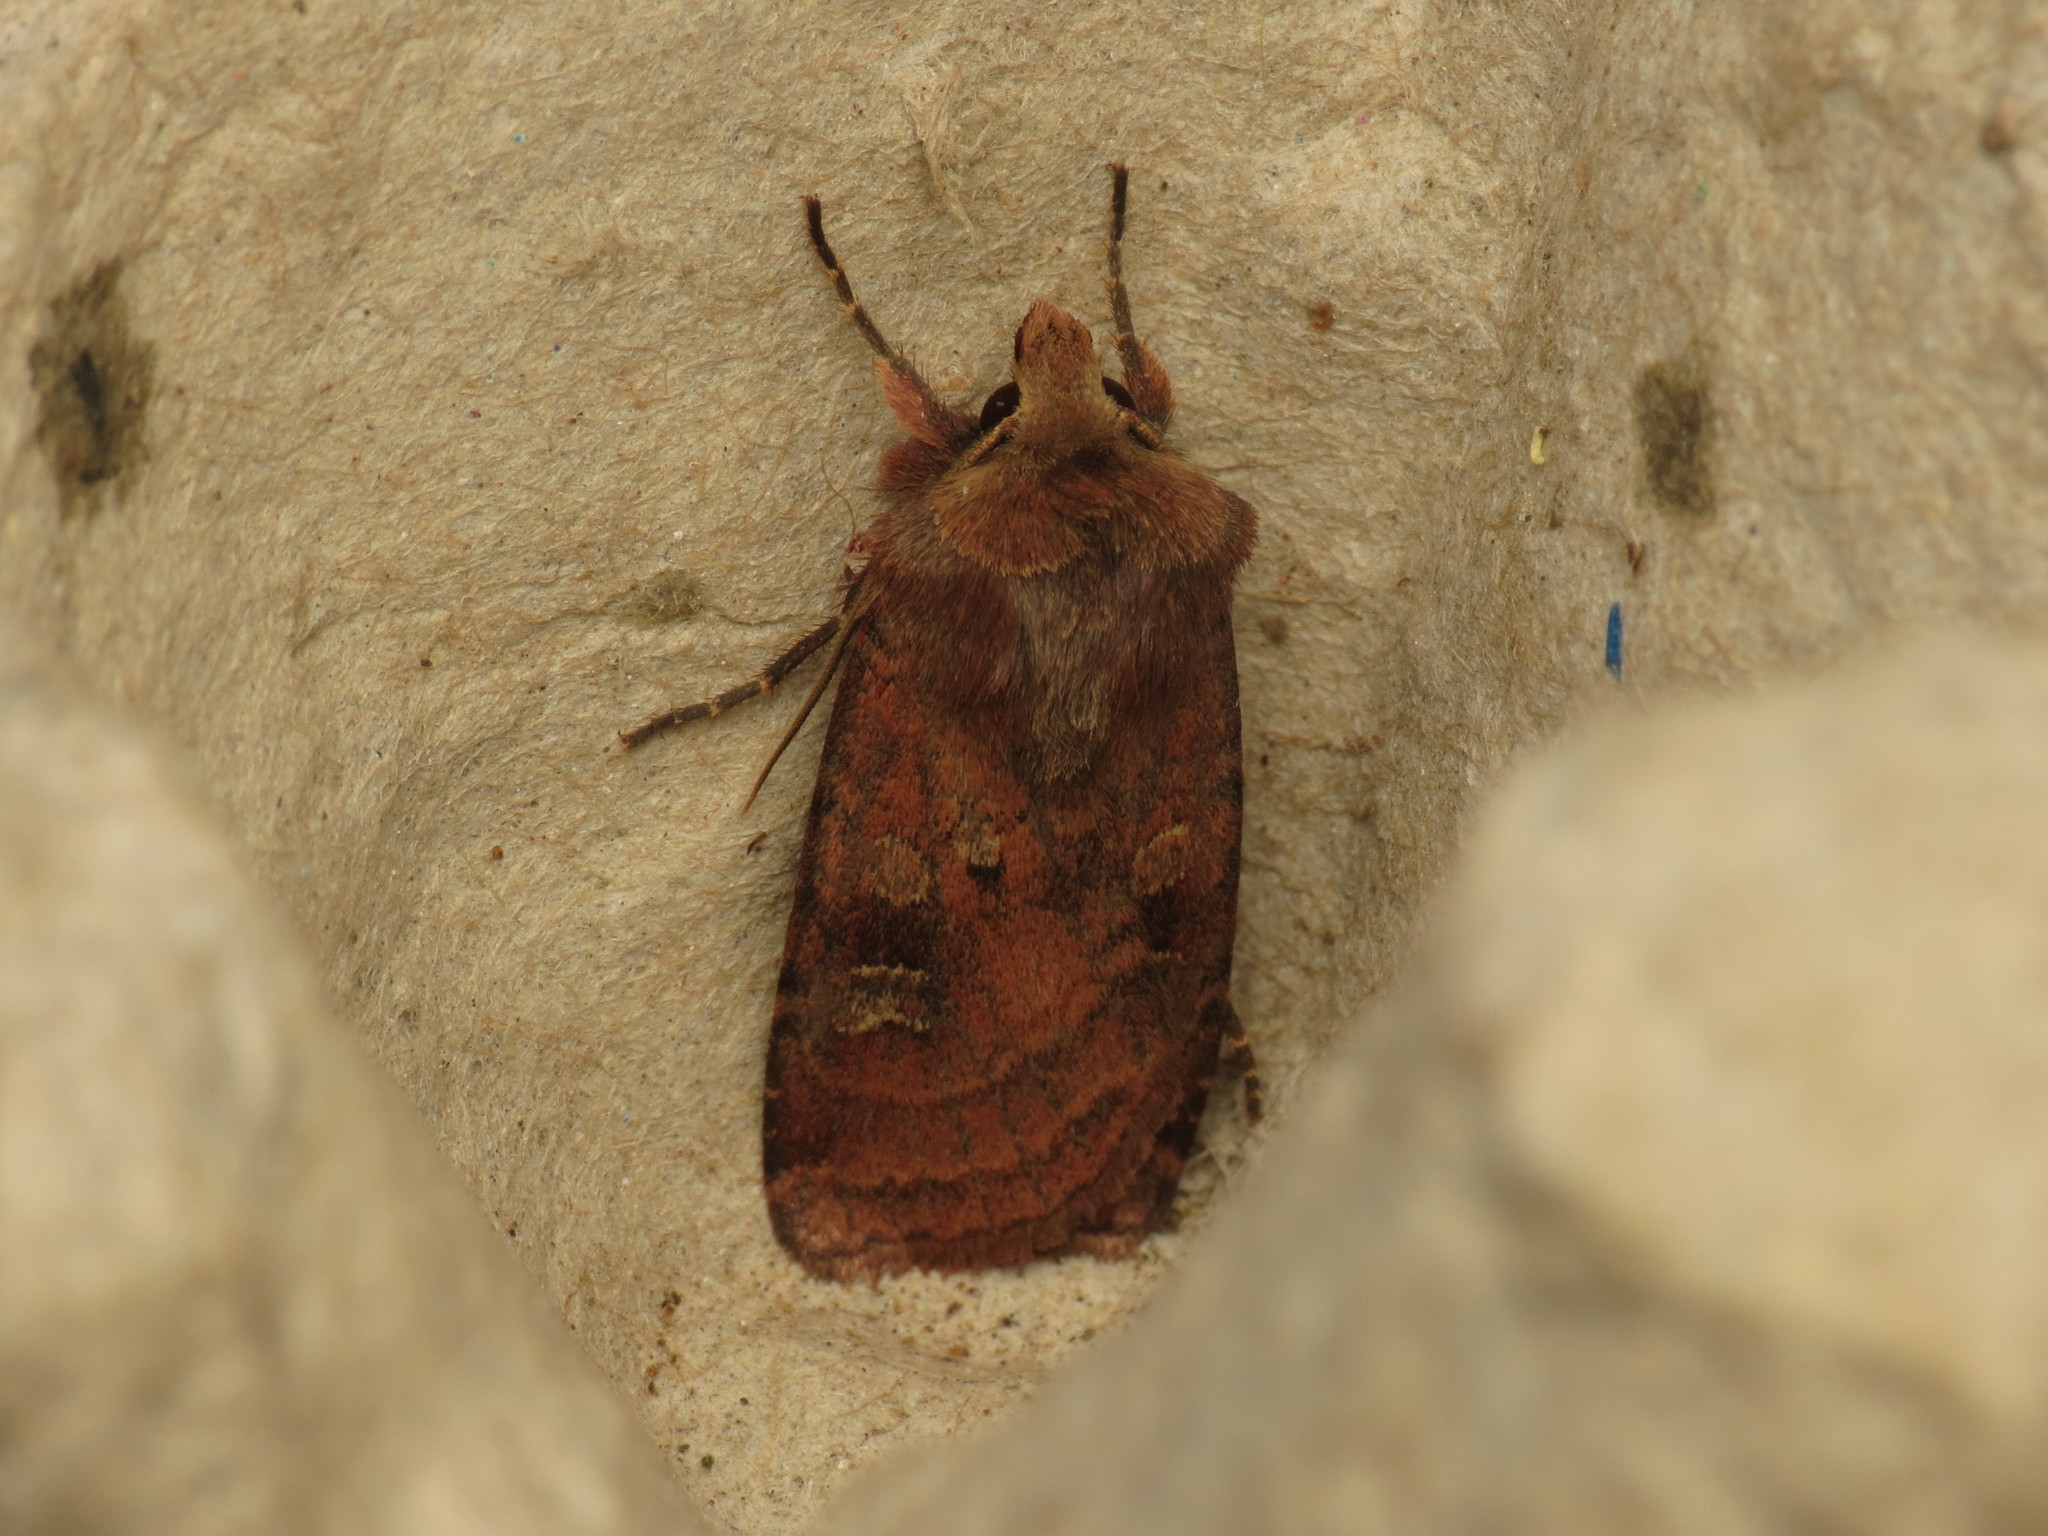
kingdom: Animalia
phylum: Arthropoda
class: Insecta
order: Lepidoptera
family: Noctuidae
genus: Diarsia
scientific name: Diarsia rubi
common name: Small square-spot
